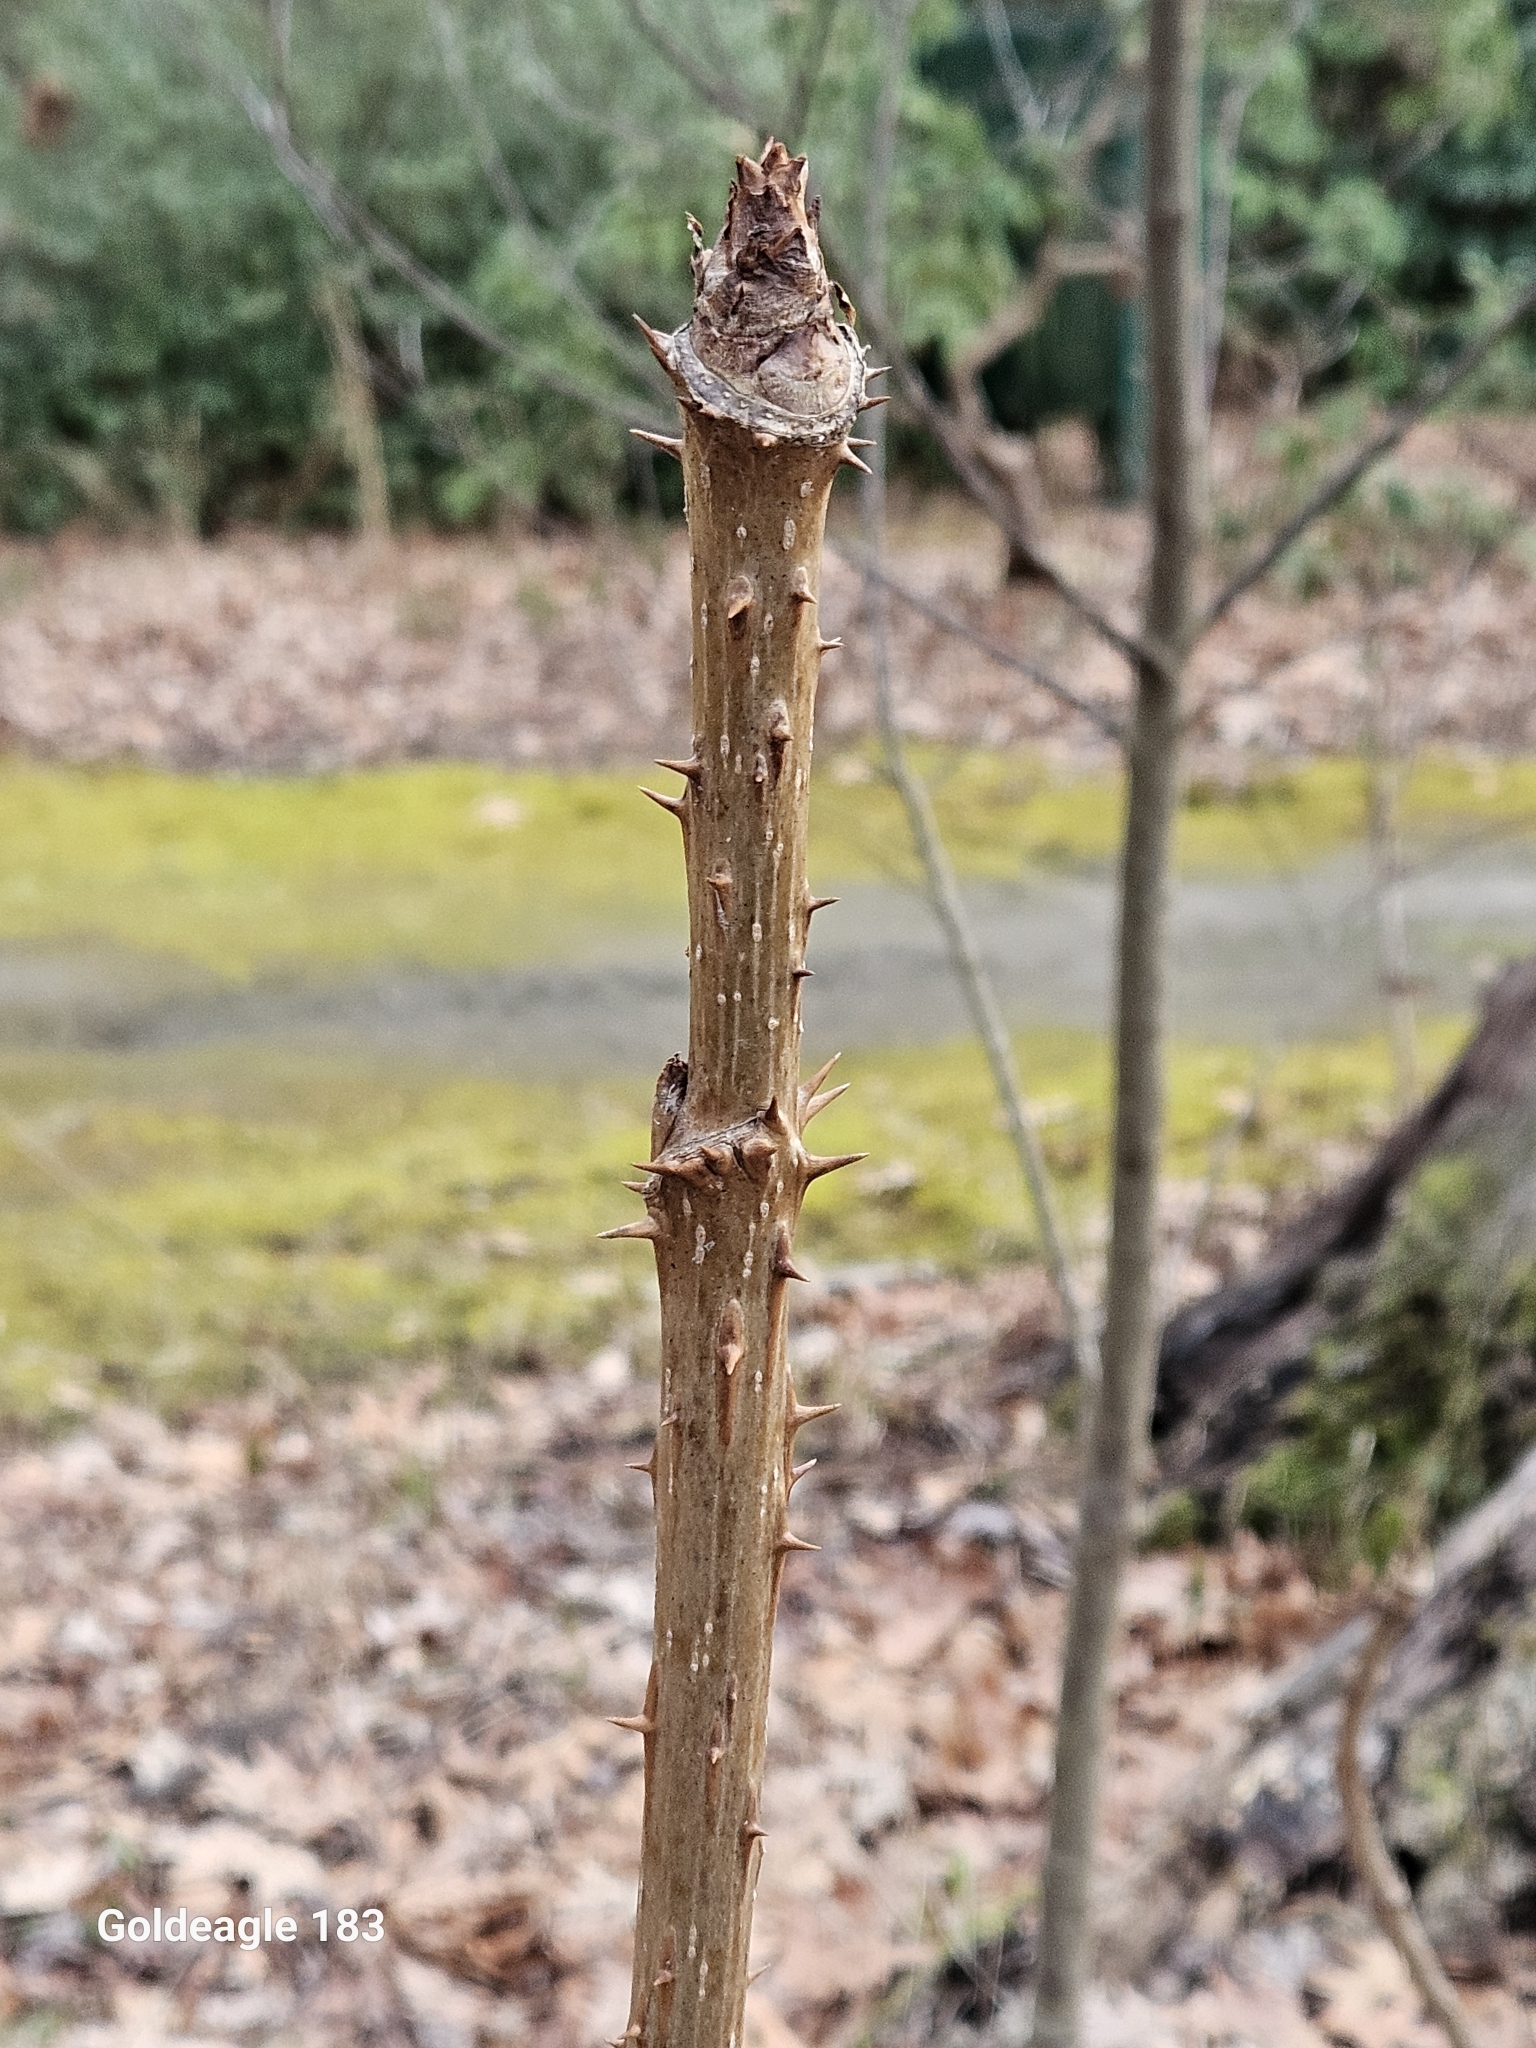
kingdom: Plantae
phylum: Tracheophyta
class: Magnoliopsida
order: Apiales
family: Araliaceae
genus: Aralia
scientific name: Aralia spinosa
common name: Hercules'-club
